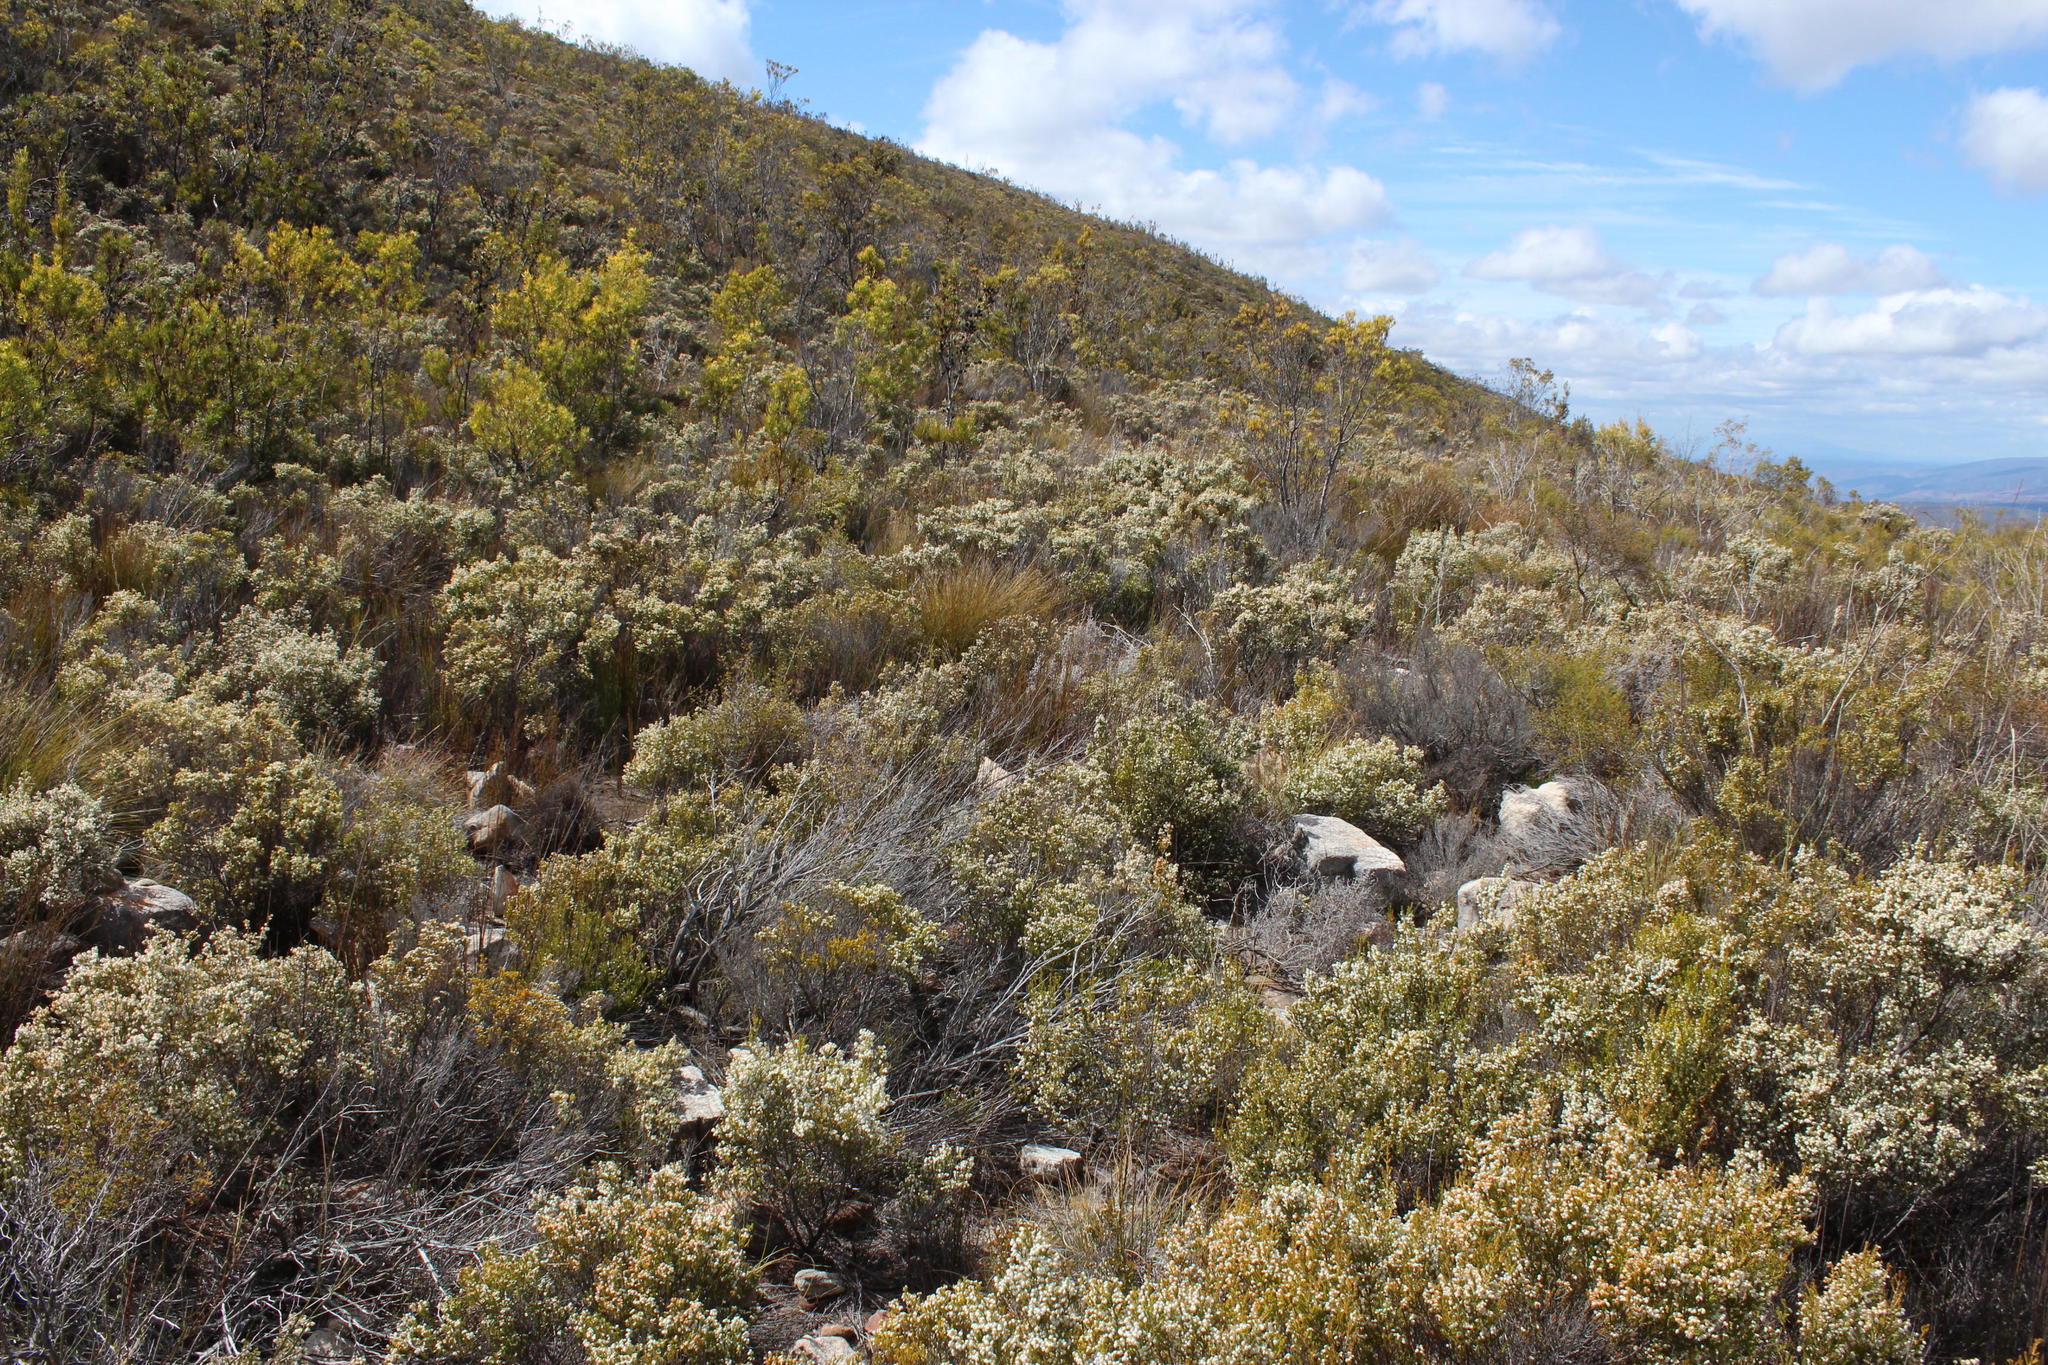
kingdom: Plantae
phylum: Tracheophyta
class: Magnoliopsida
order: Ericales
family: Ericaceae
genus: Erica
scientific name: Erica syngenesia
